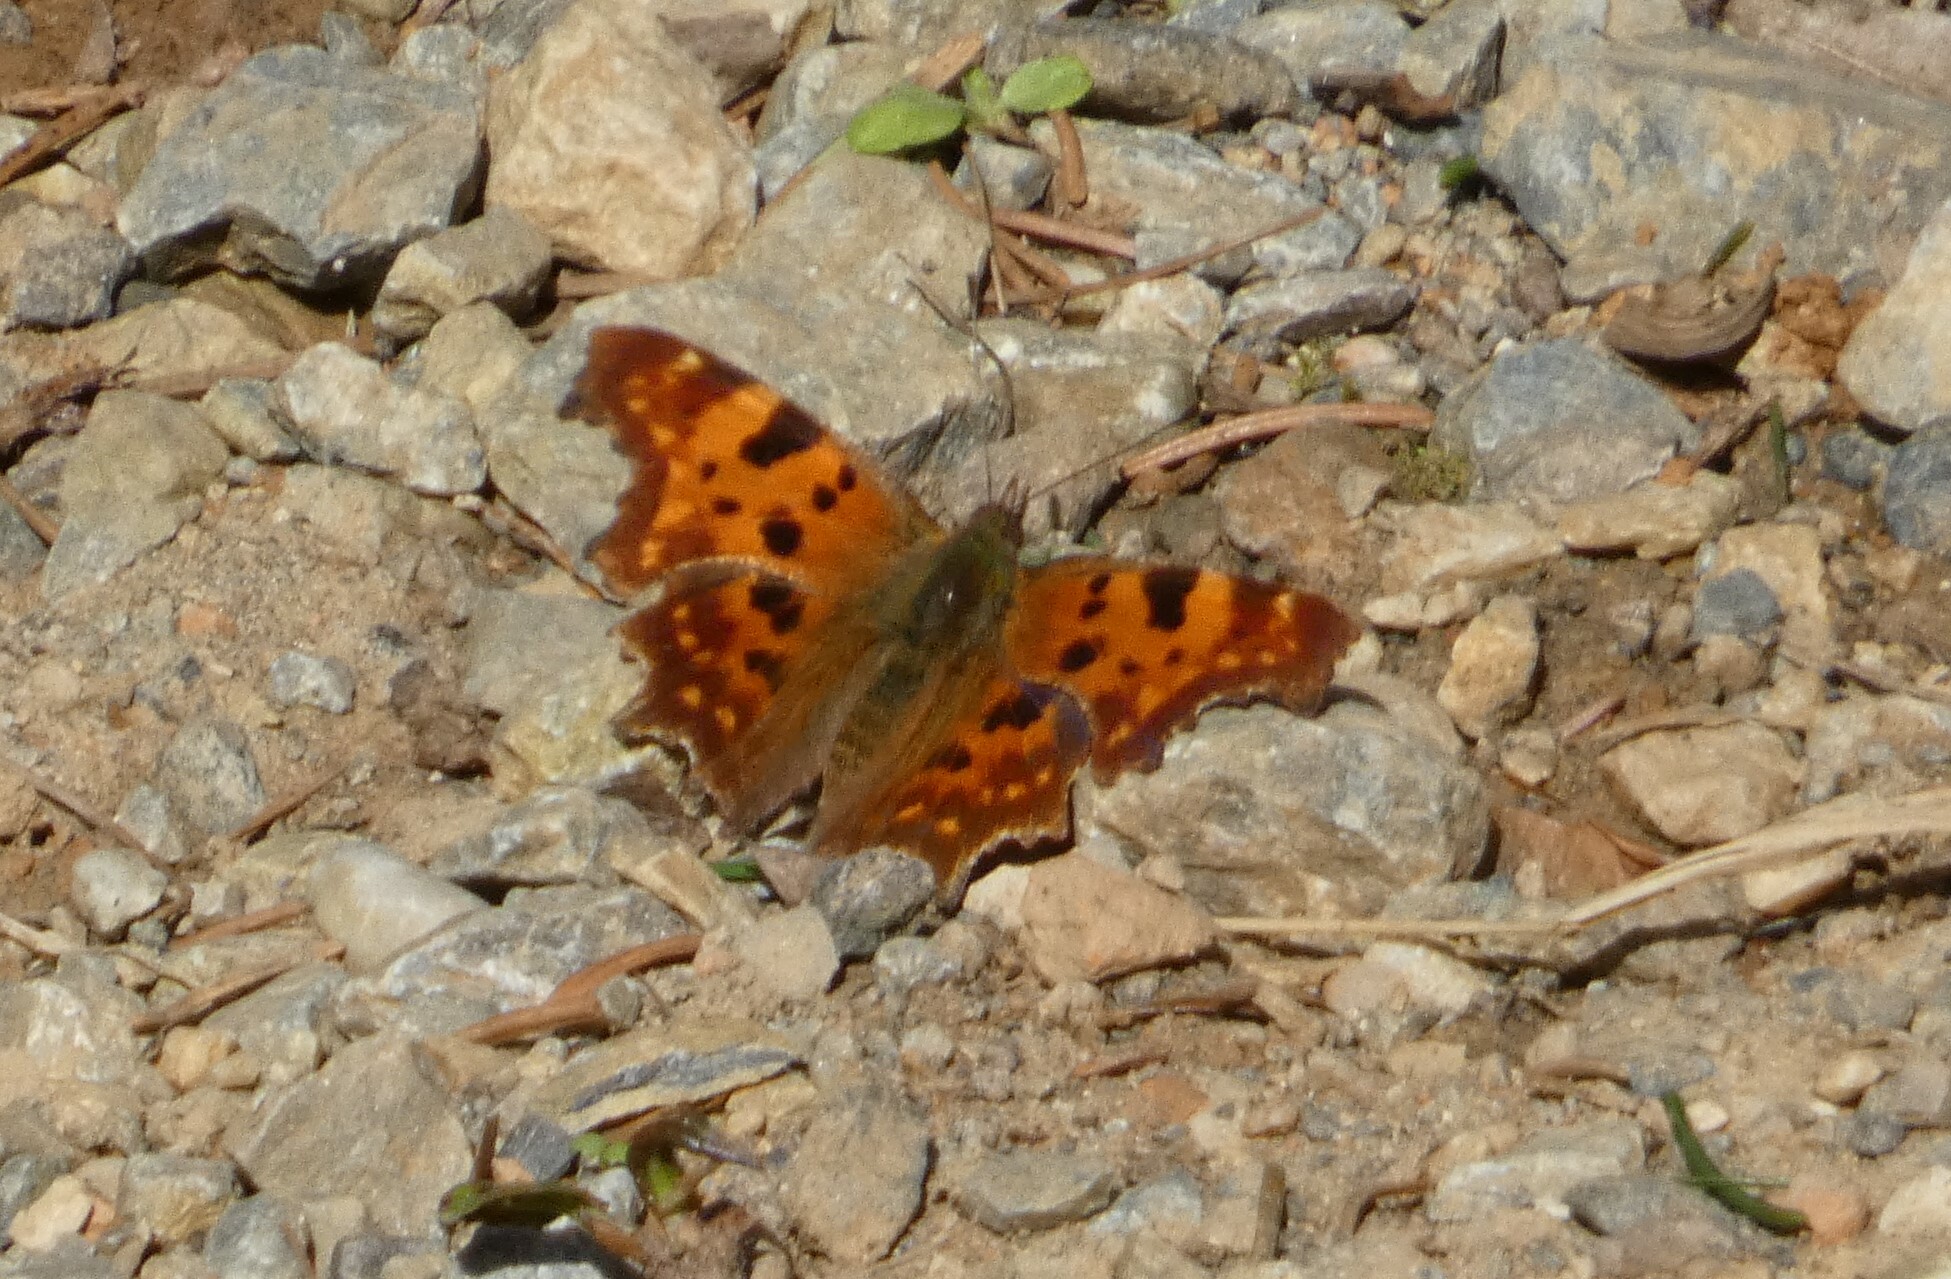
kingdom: Animalia
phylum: Arthropoda
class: Insecta
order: Lepidoptera
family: Nymphalidae
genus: Polygonia
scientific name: Polygonia c-album
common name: Comma
